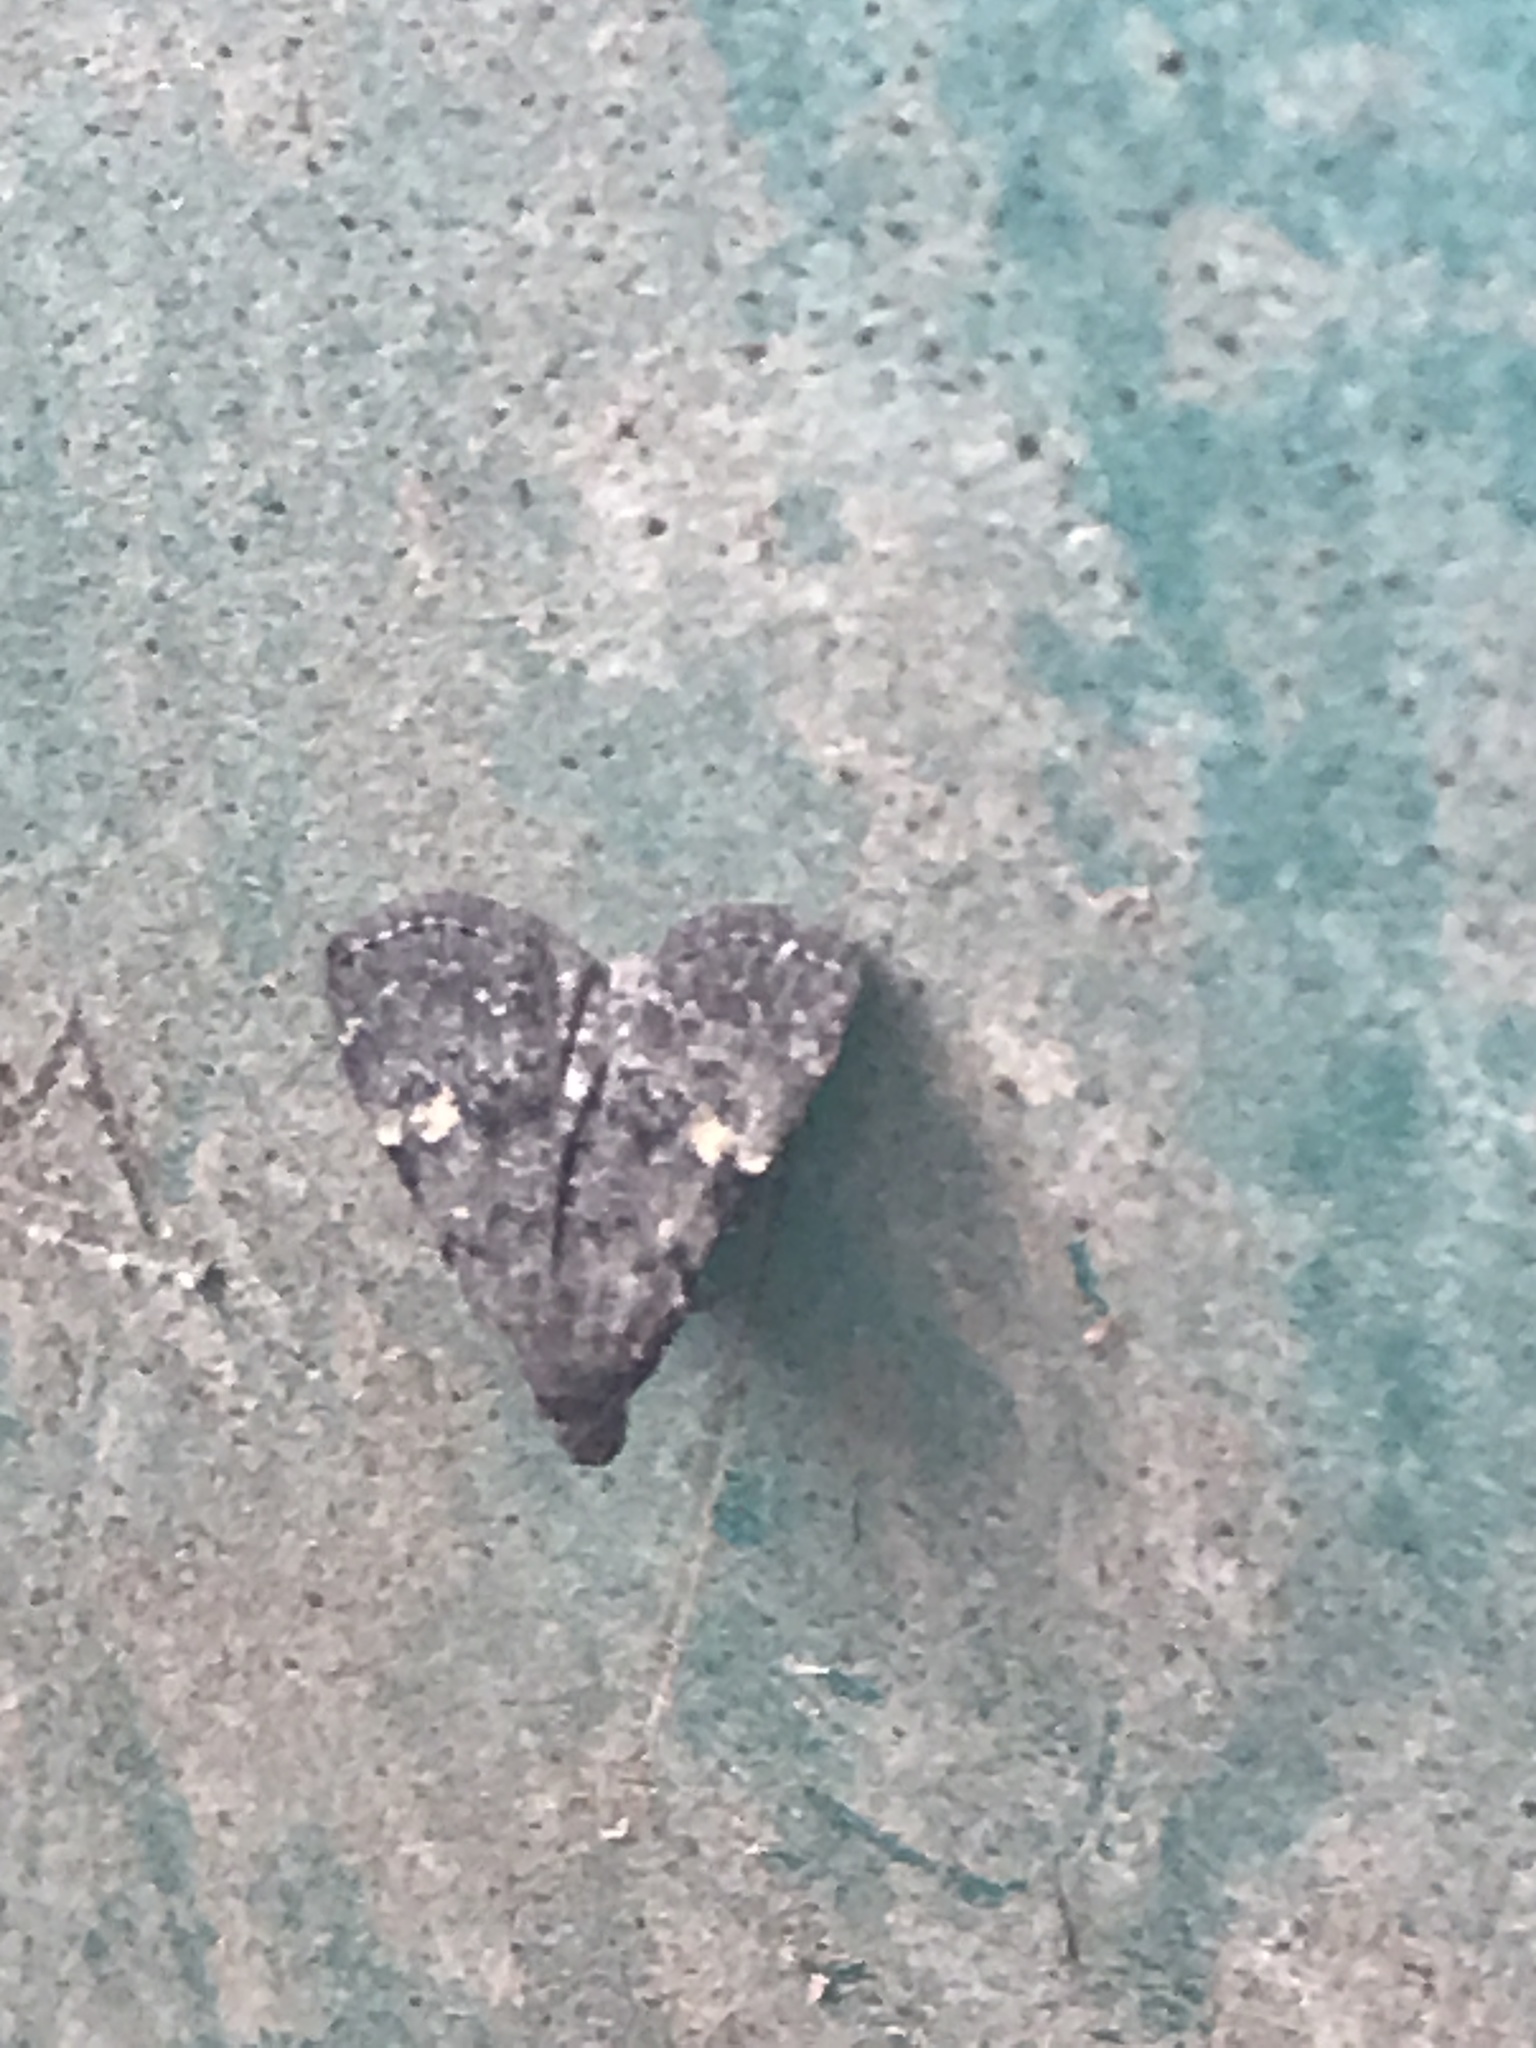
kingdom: Animalia
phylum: Arthropoda
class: Insecta
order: Lepidoptera
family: Erebidae
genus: Idia
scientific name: Idia aemula
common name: Common idia moth
